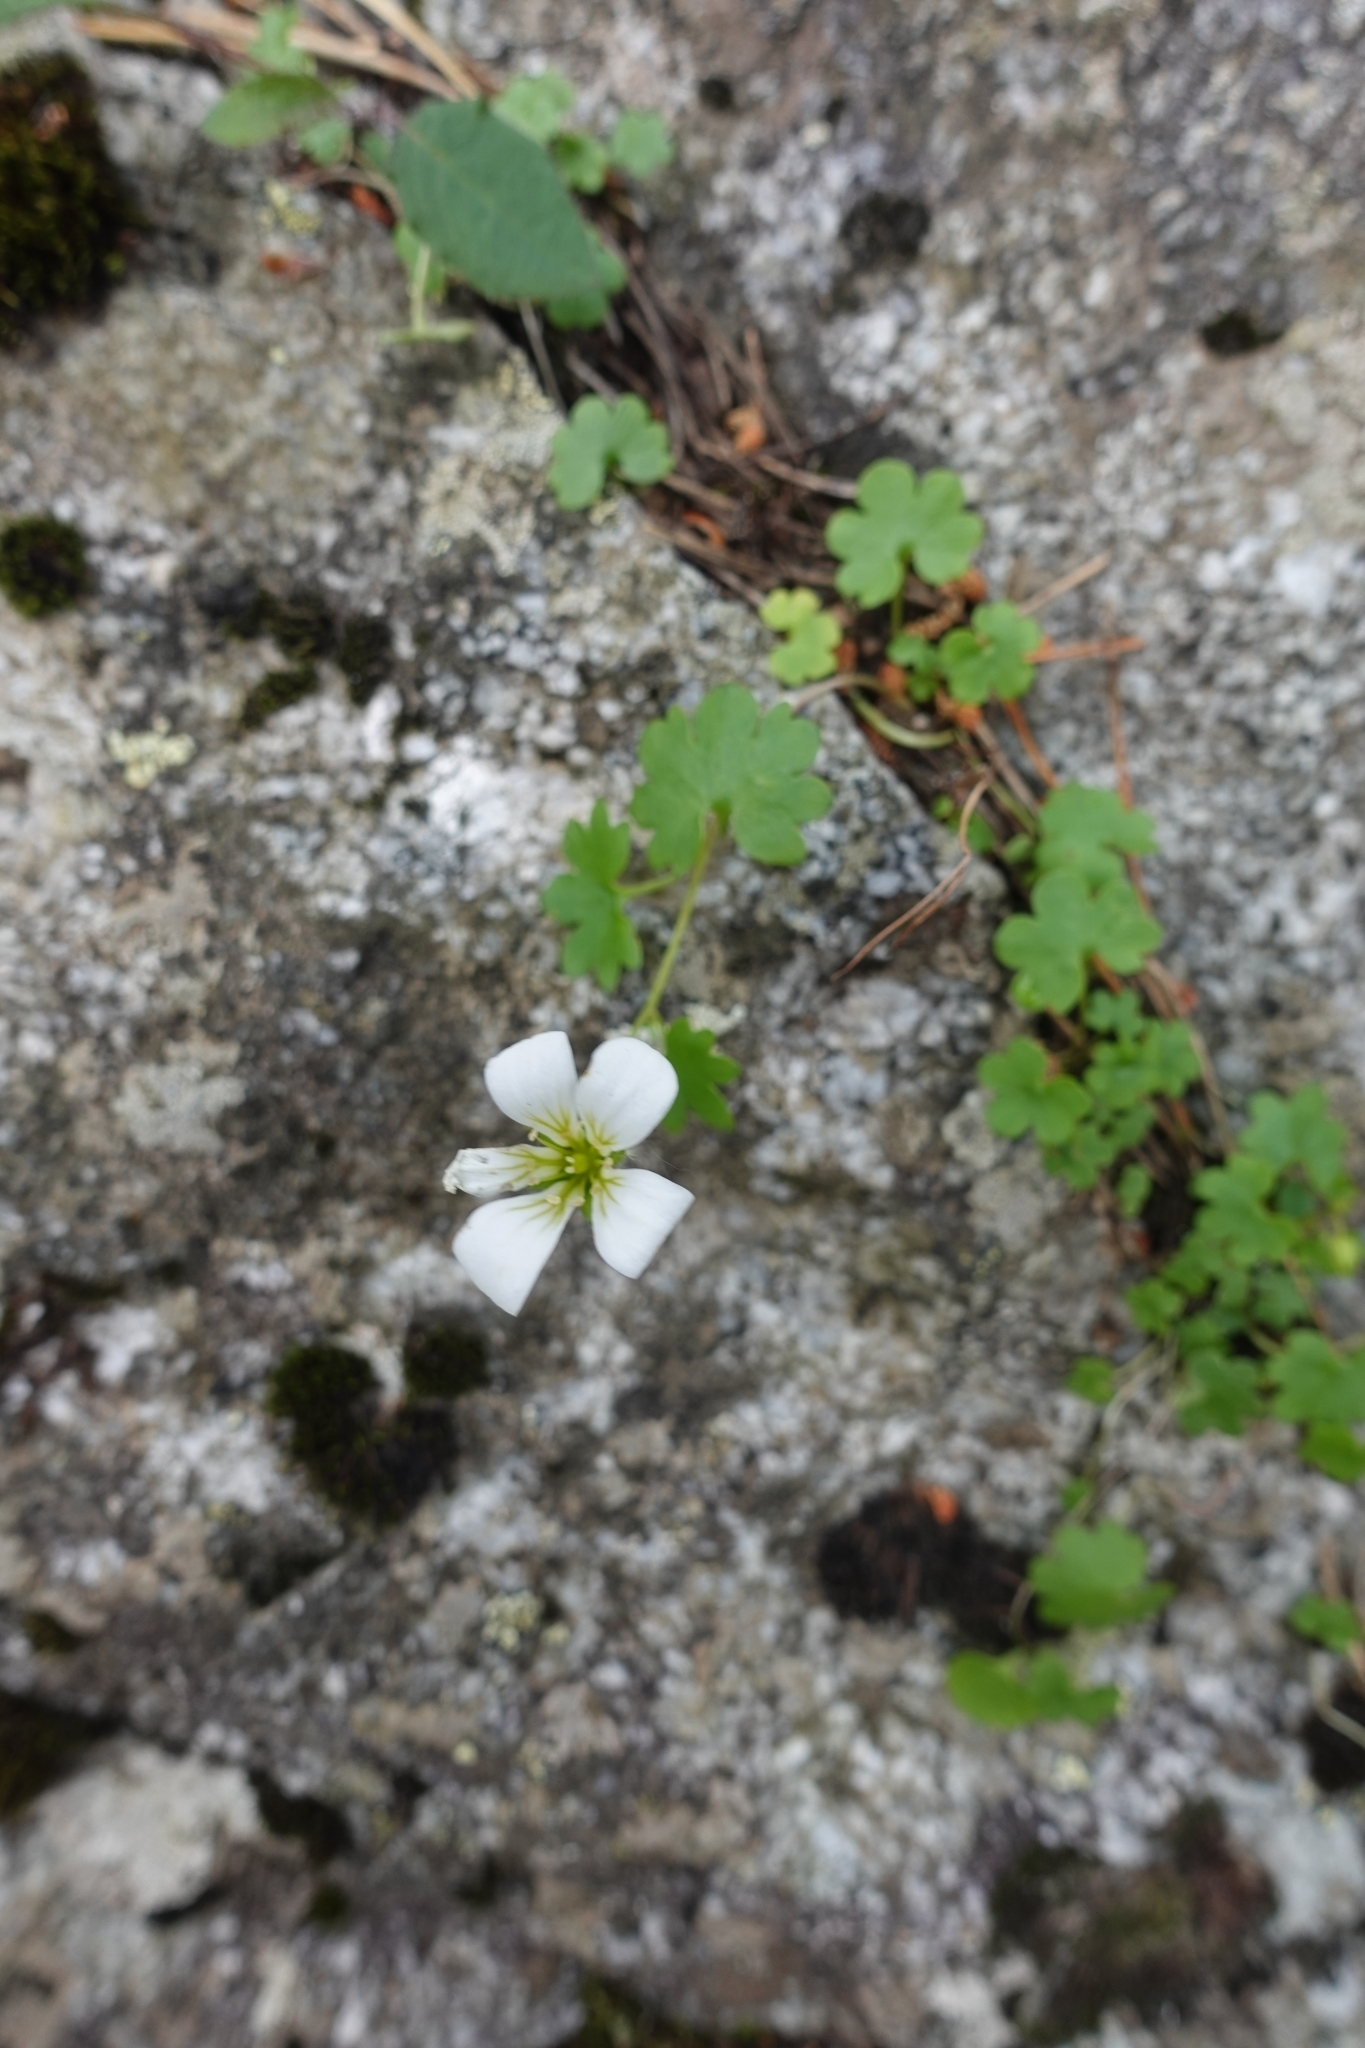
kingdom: Plantae
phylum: Tracheophyta
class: Magnoliopsida
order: Saxifragales
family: Saxifragaceae
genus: Saxifraga
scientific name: Saxifraga sibirica
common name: Siberian saxifrage
